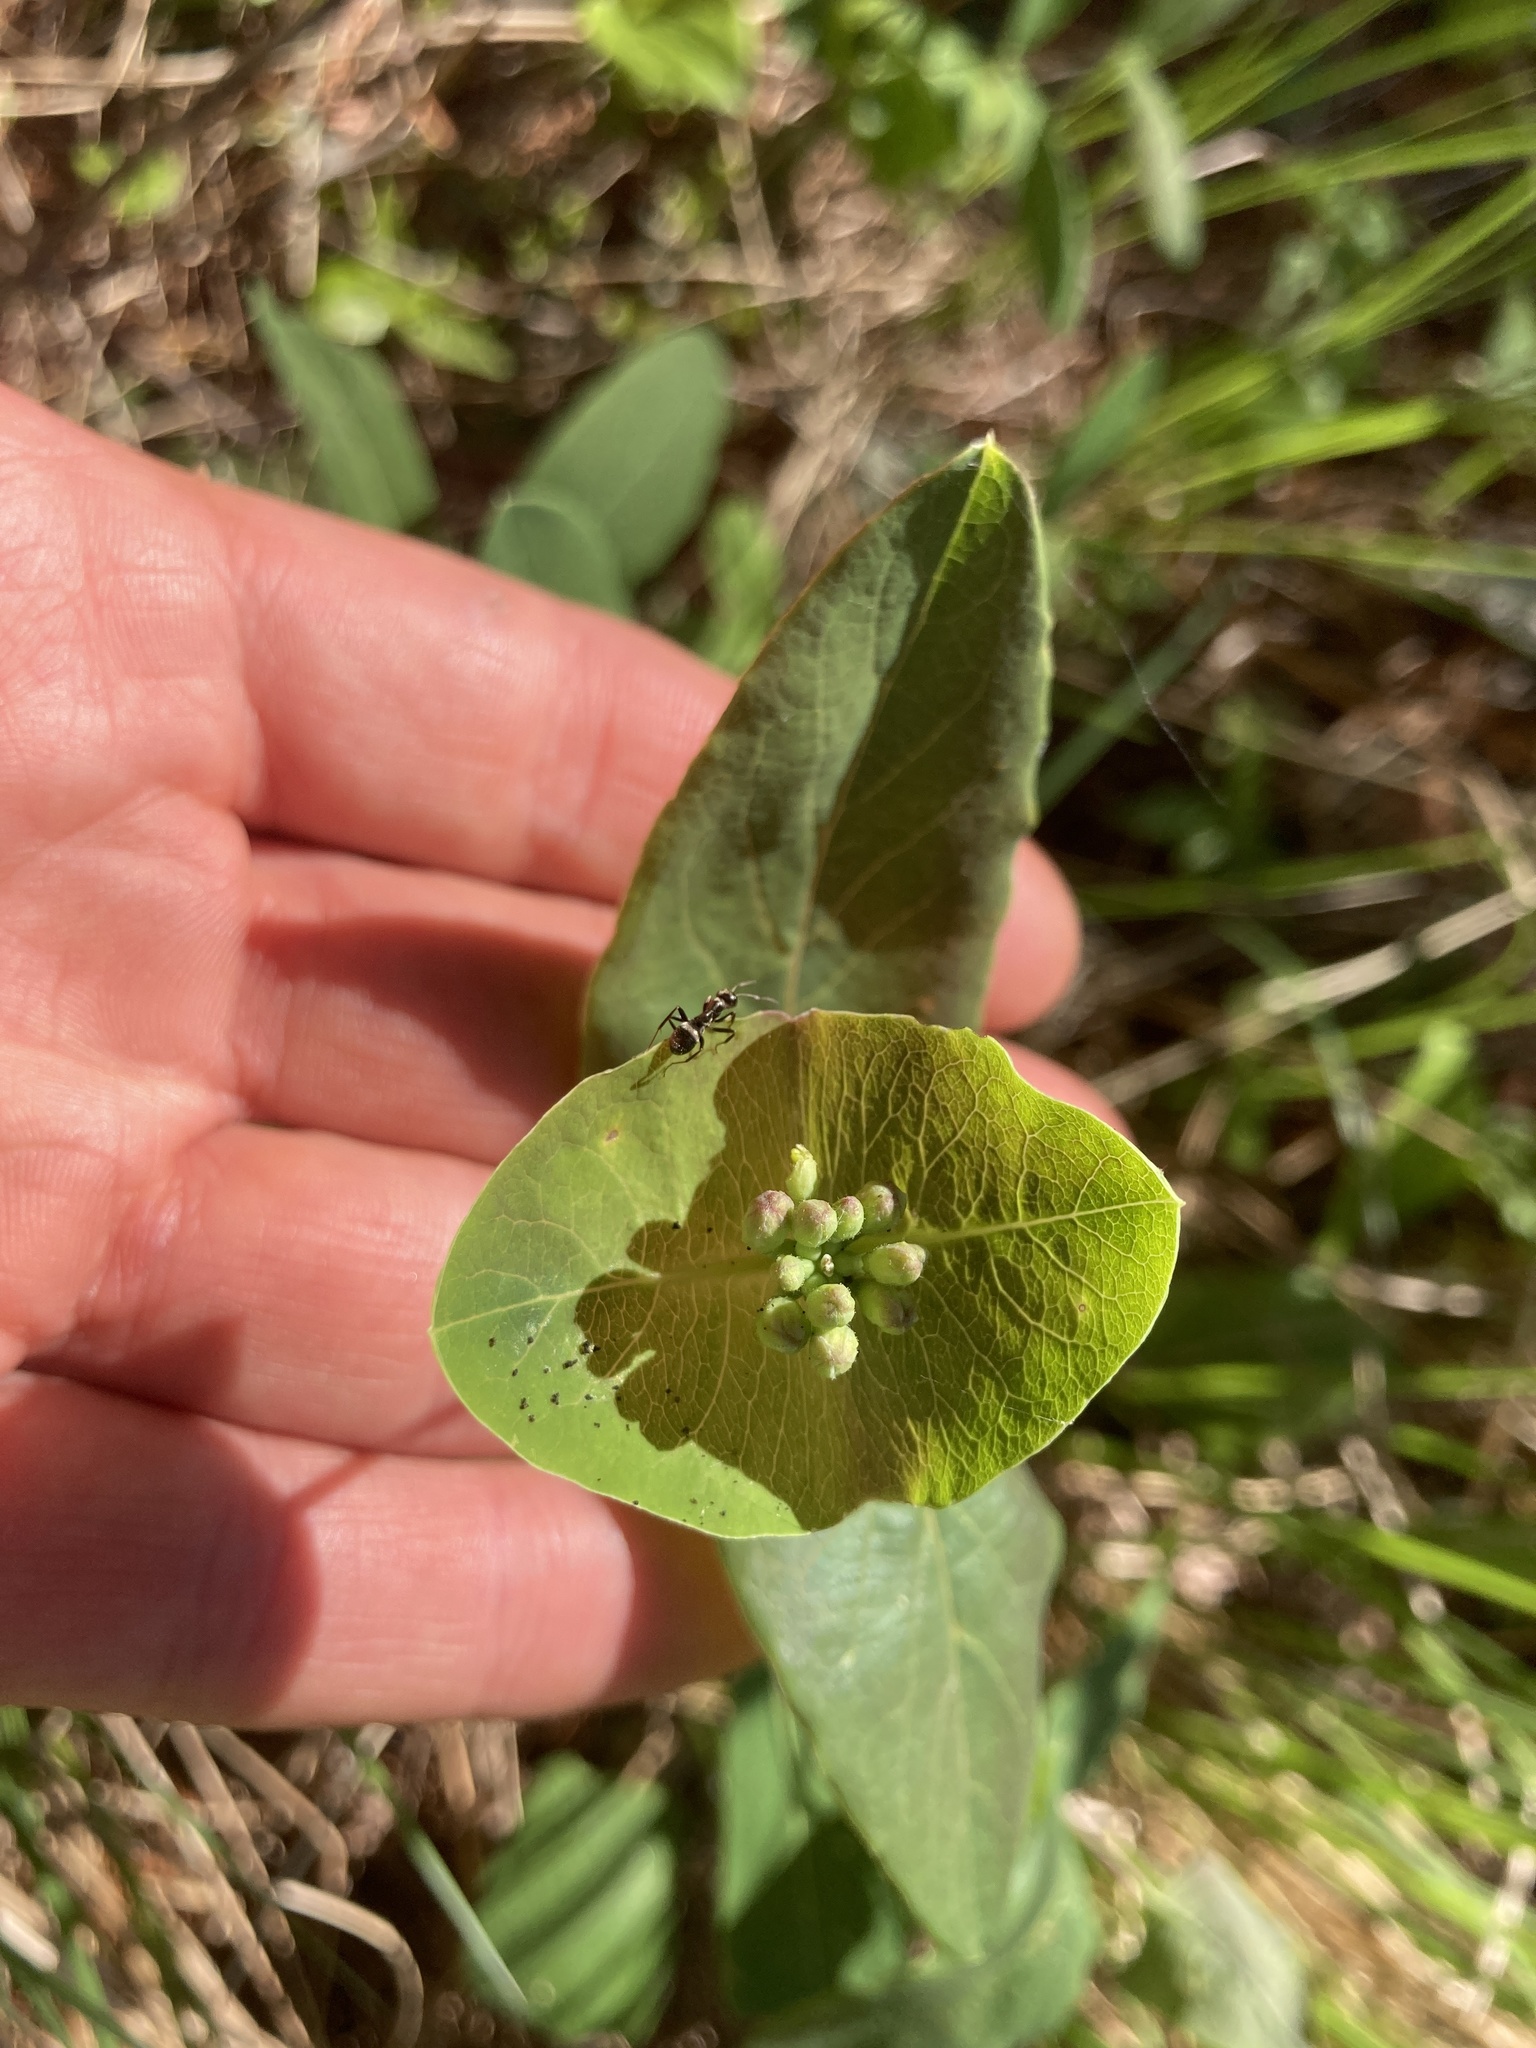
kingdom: Plantae
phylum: Tracheophyta
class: Magnoliopsida
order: Dipsacales
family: Caprifoliaceae
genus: Lonicera
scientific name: Lonicera dioica
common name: Limber honeysuckle
